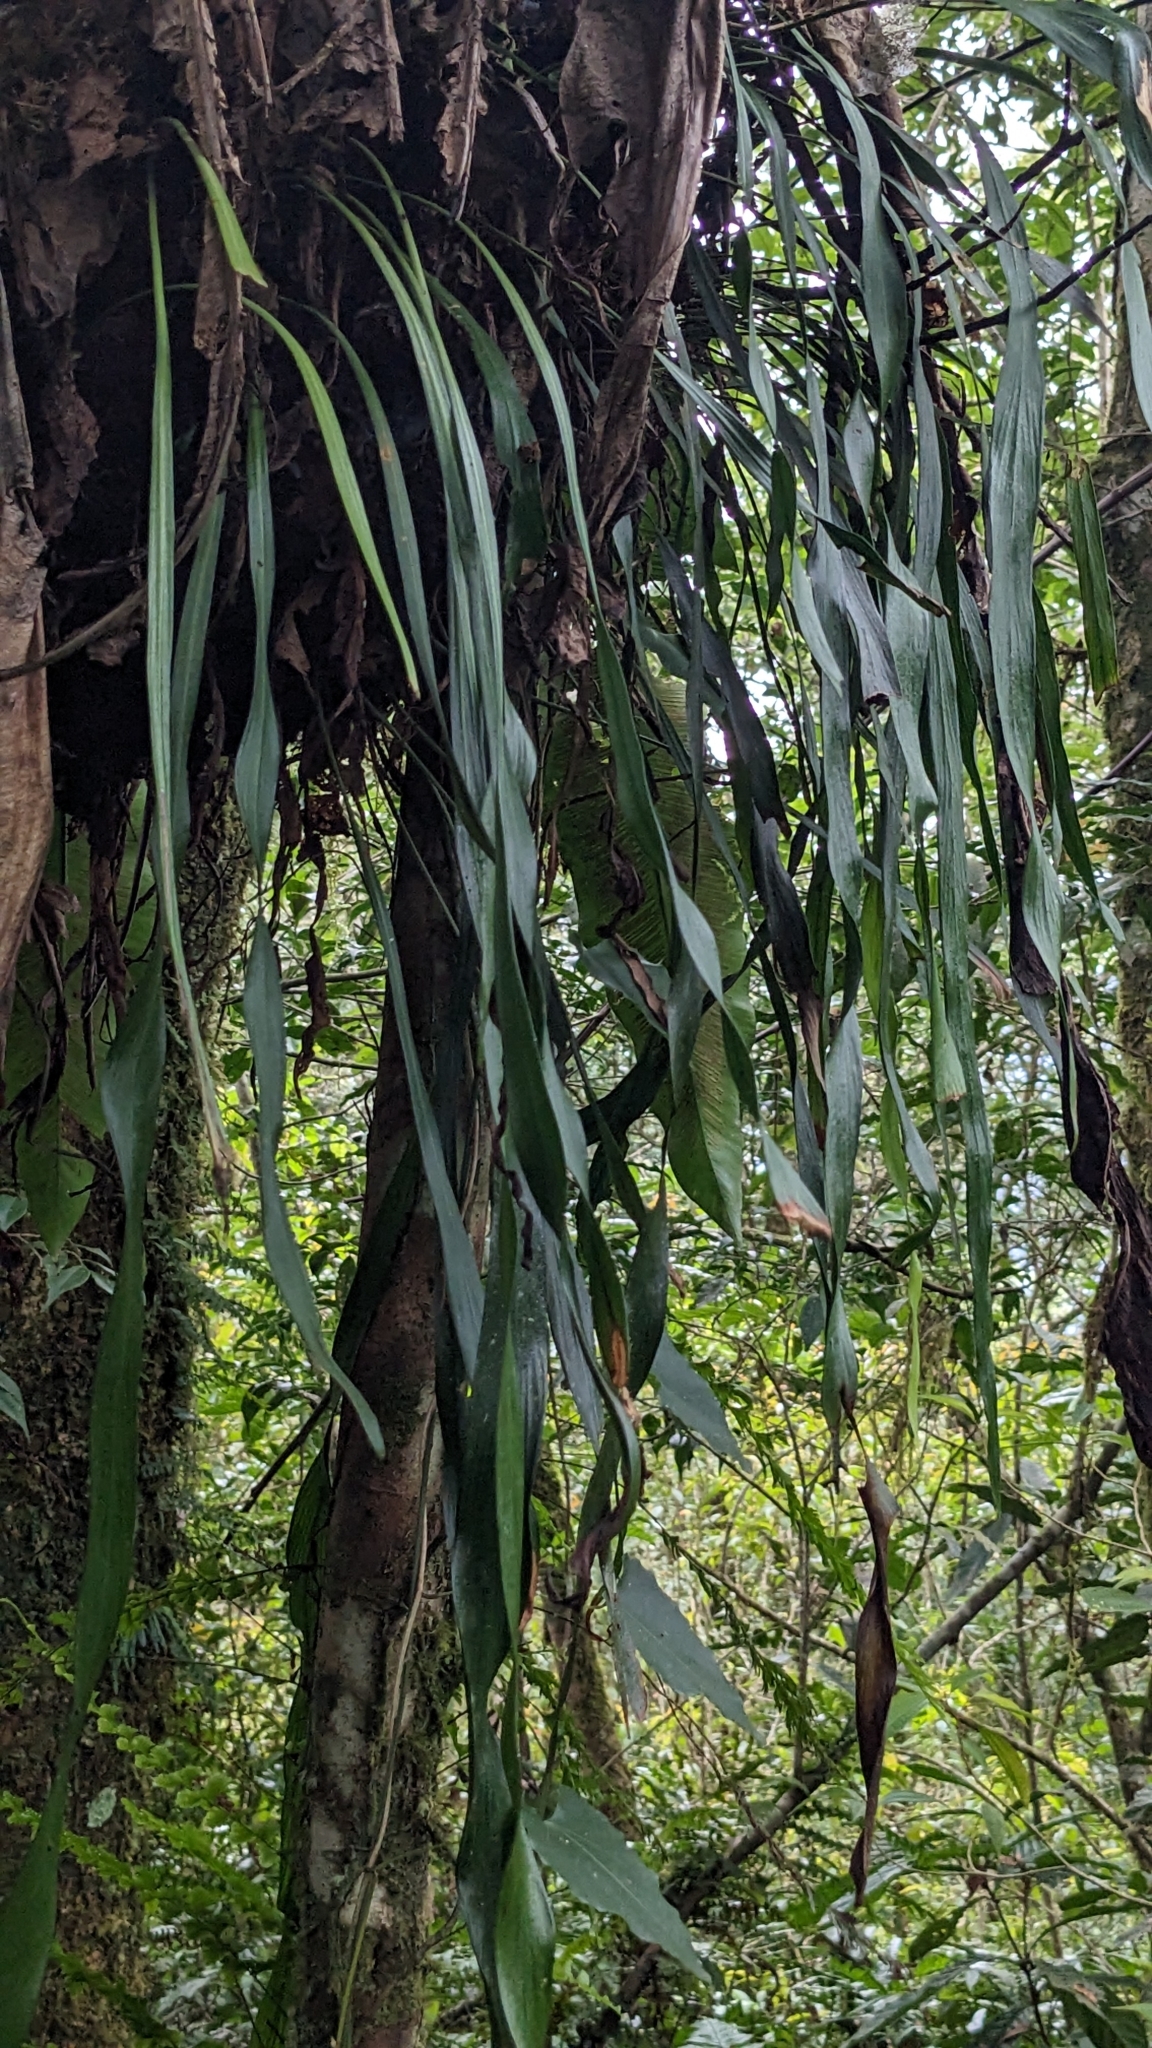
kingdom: Plantae
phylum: Tracheophyta
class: Polypodiopsida
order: Polypodiales
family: Pteridaceae
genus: Haplopteris
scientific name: Haplopteris elongata
